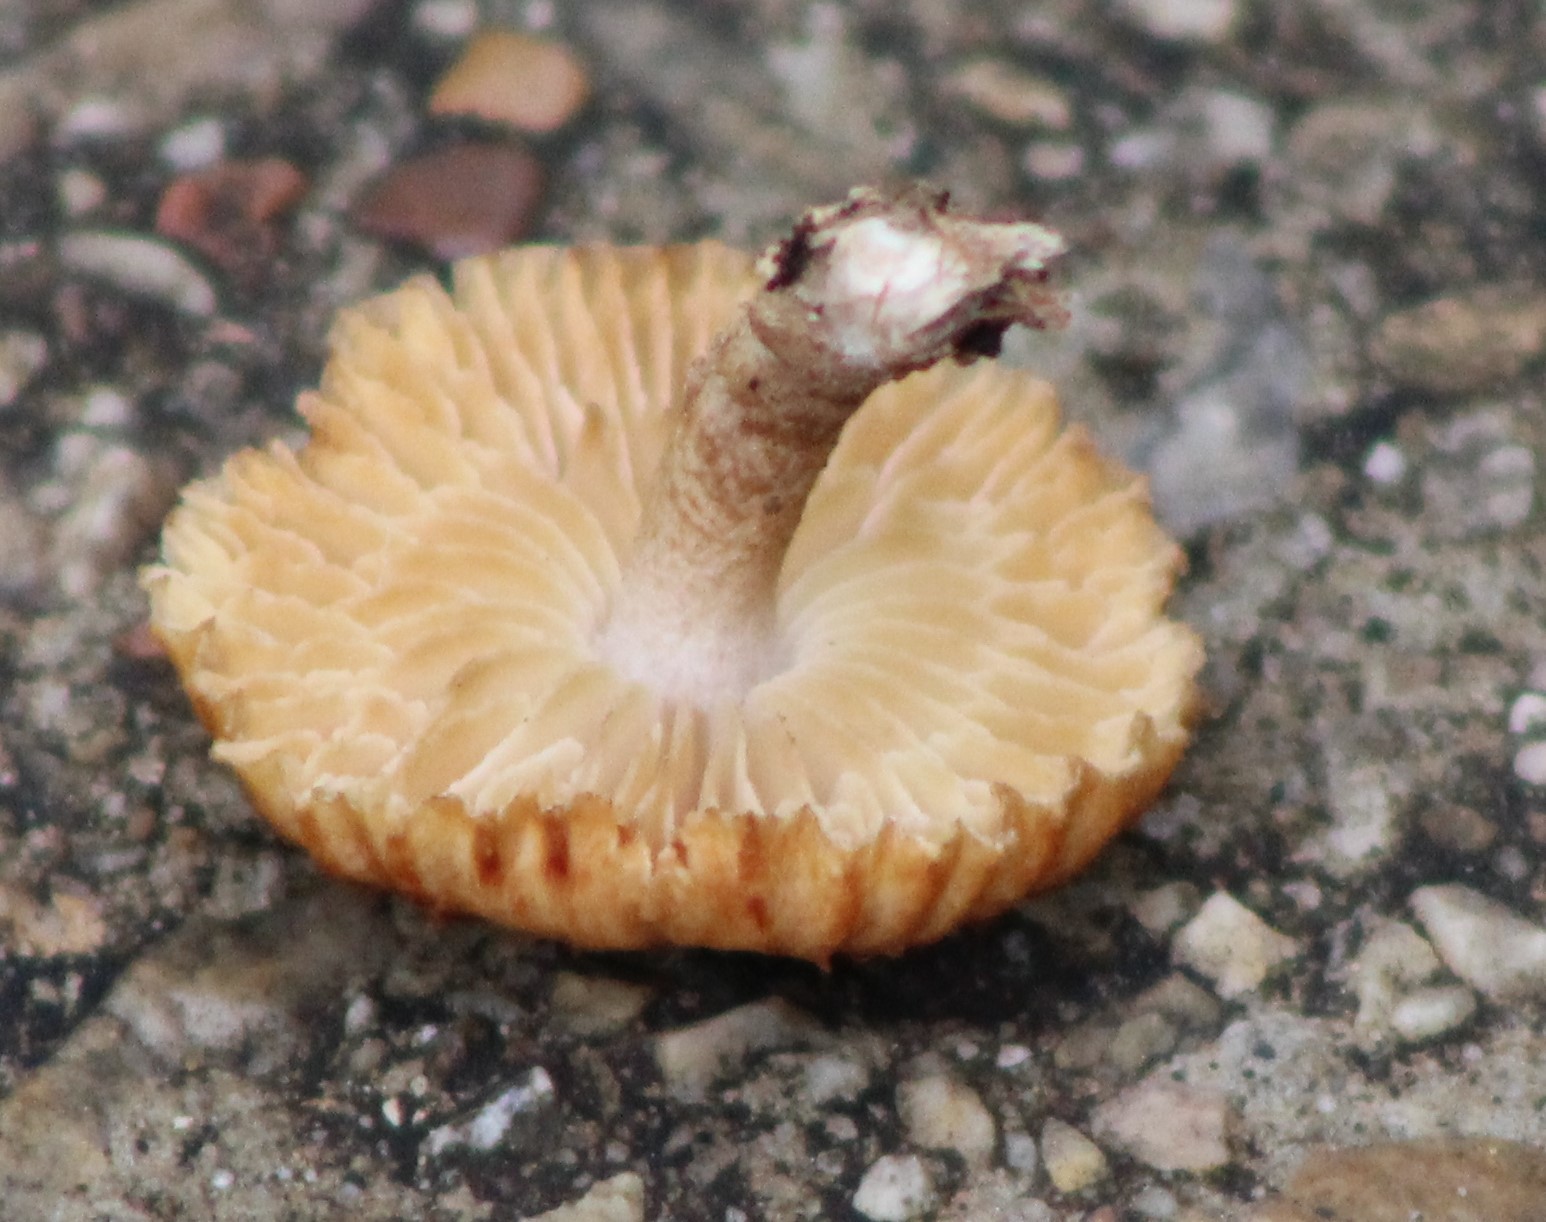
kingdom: Fungi
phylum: Basidiomycota
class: Agaricomycetes
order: Gloeophyllales
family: Gloeophyllaceae
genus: Heliocybe
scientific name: Heliocybe sulcata
